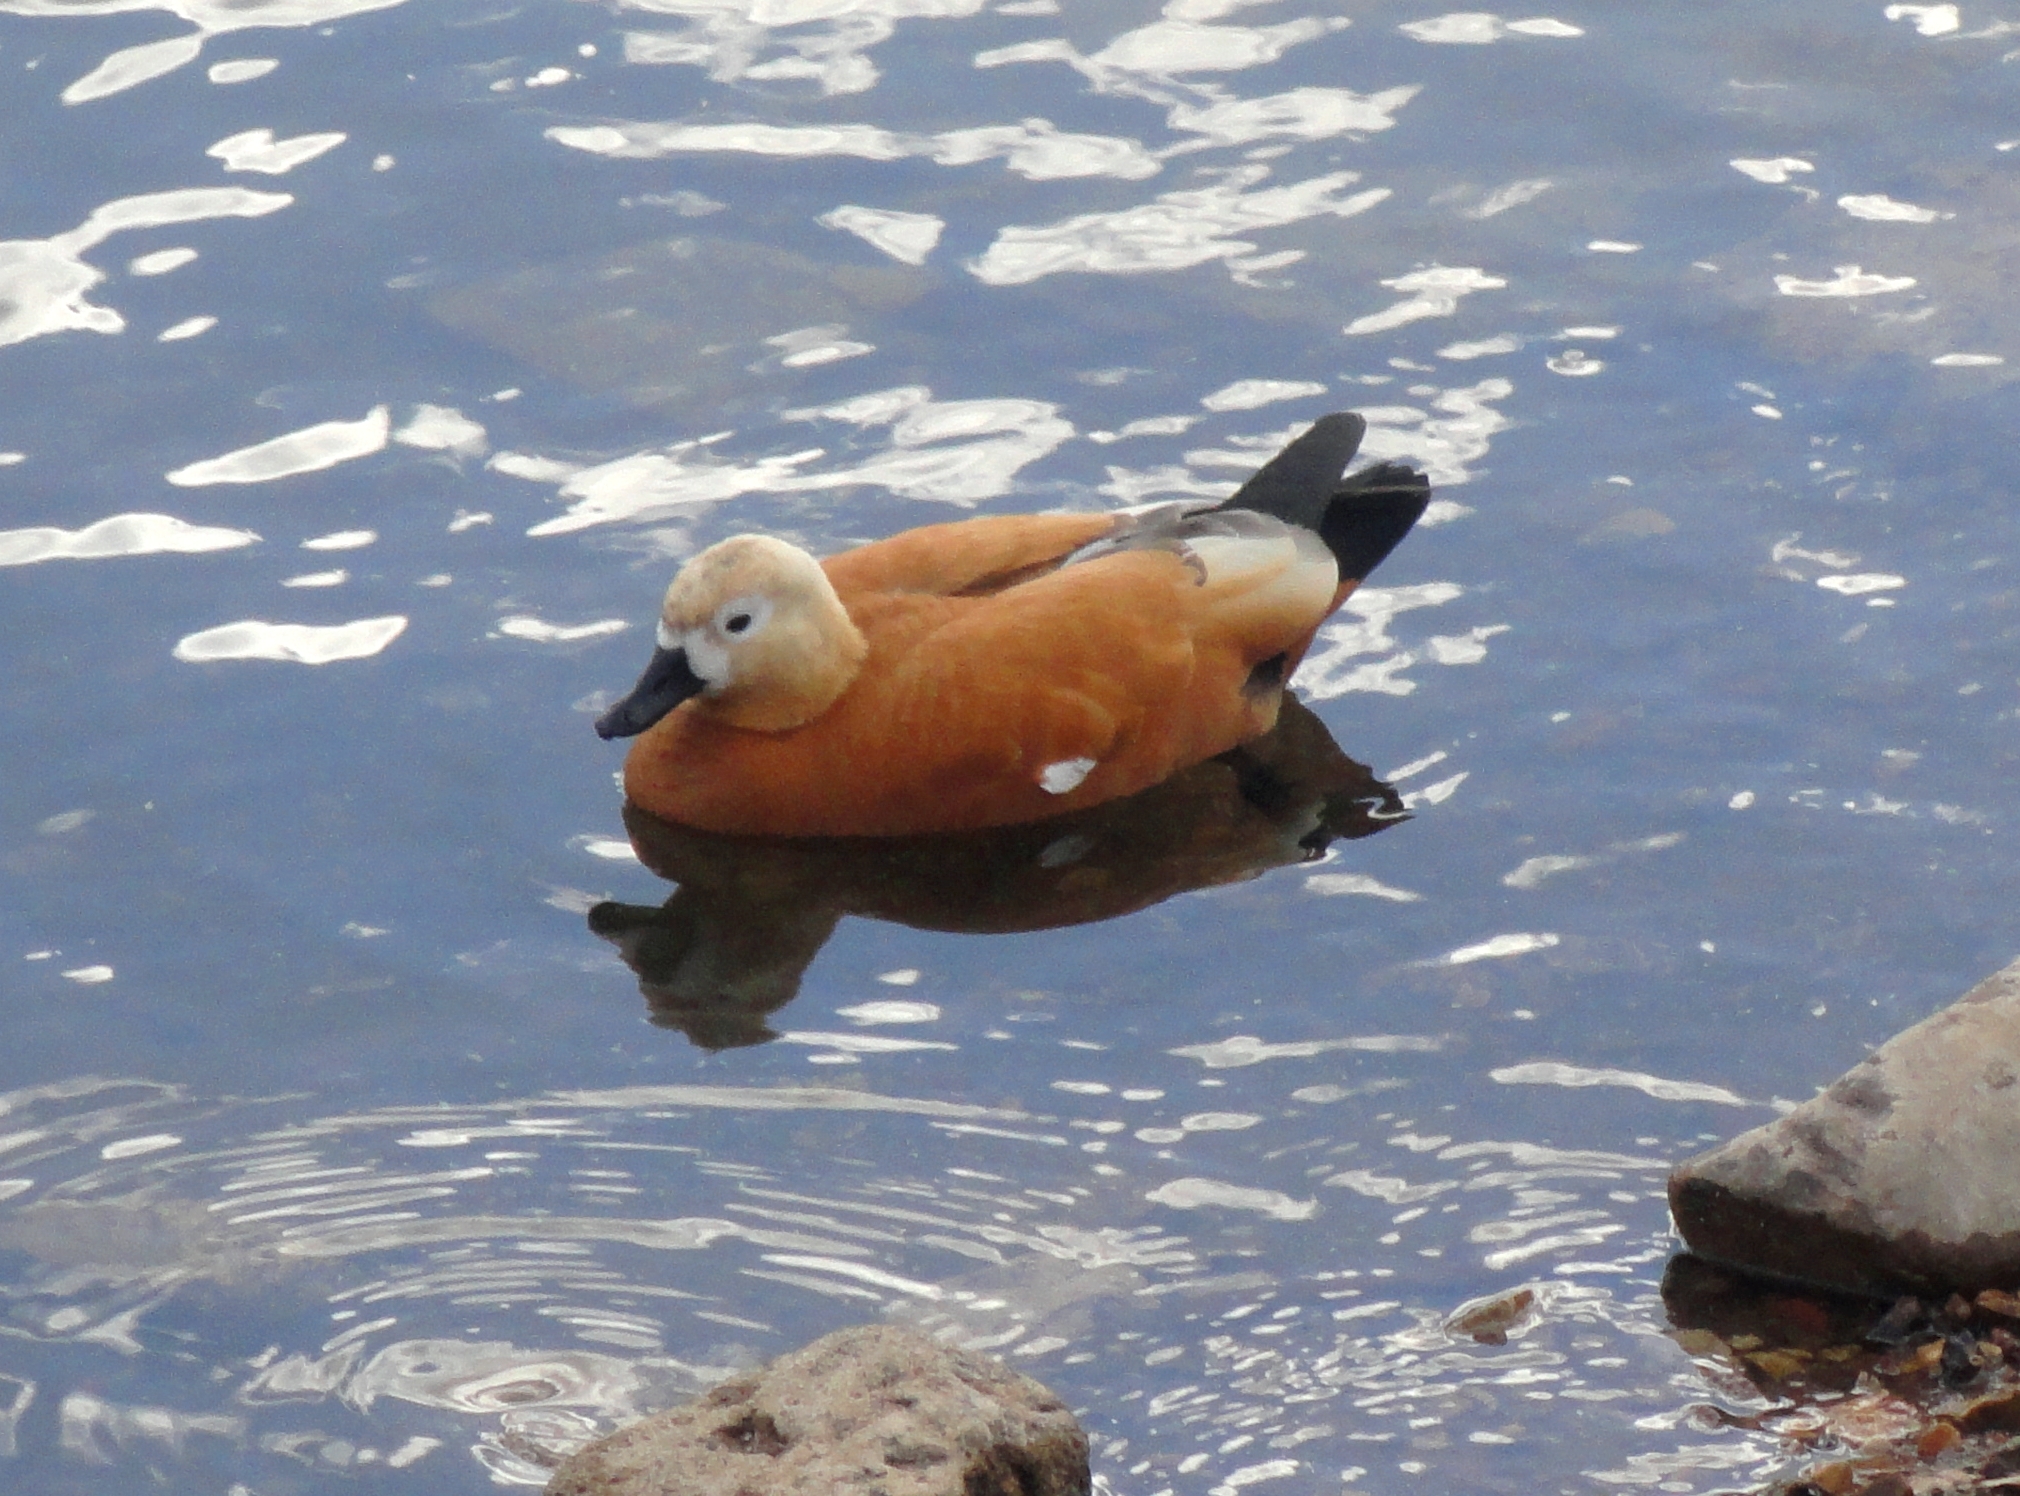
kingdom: Animalia
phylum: Chordata
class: Aves
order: Anseriformes
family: Anatidae
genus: Tadorna
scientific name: Tadorna ferruginea
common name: Ruddy shelduck
